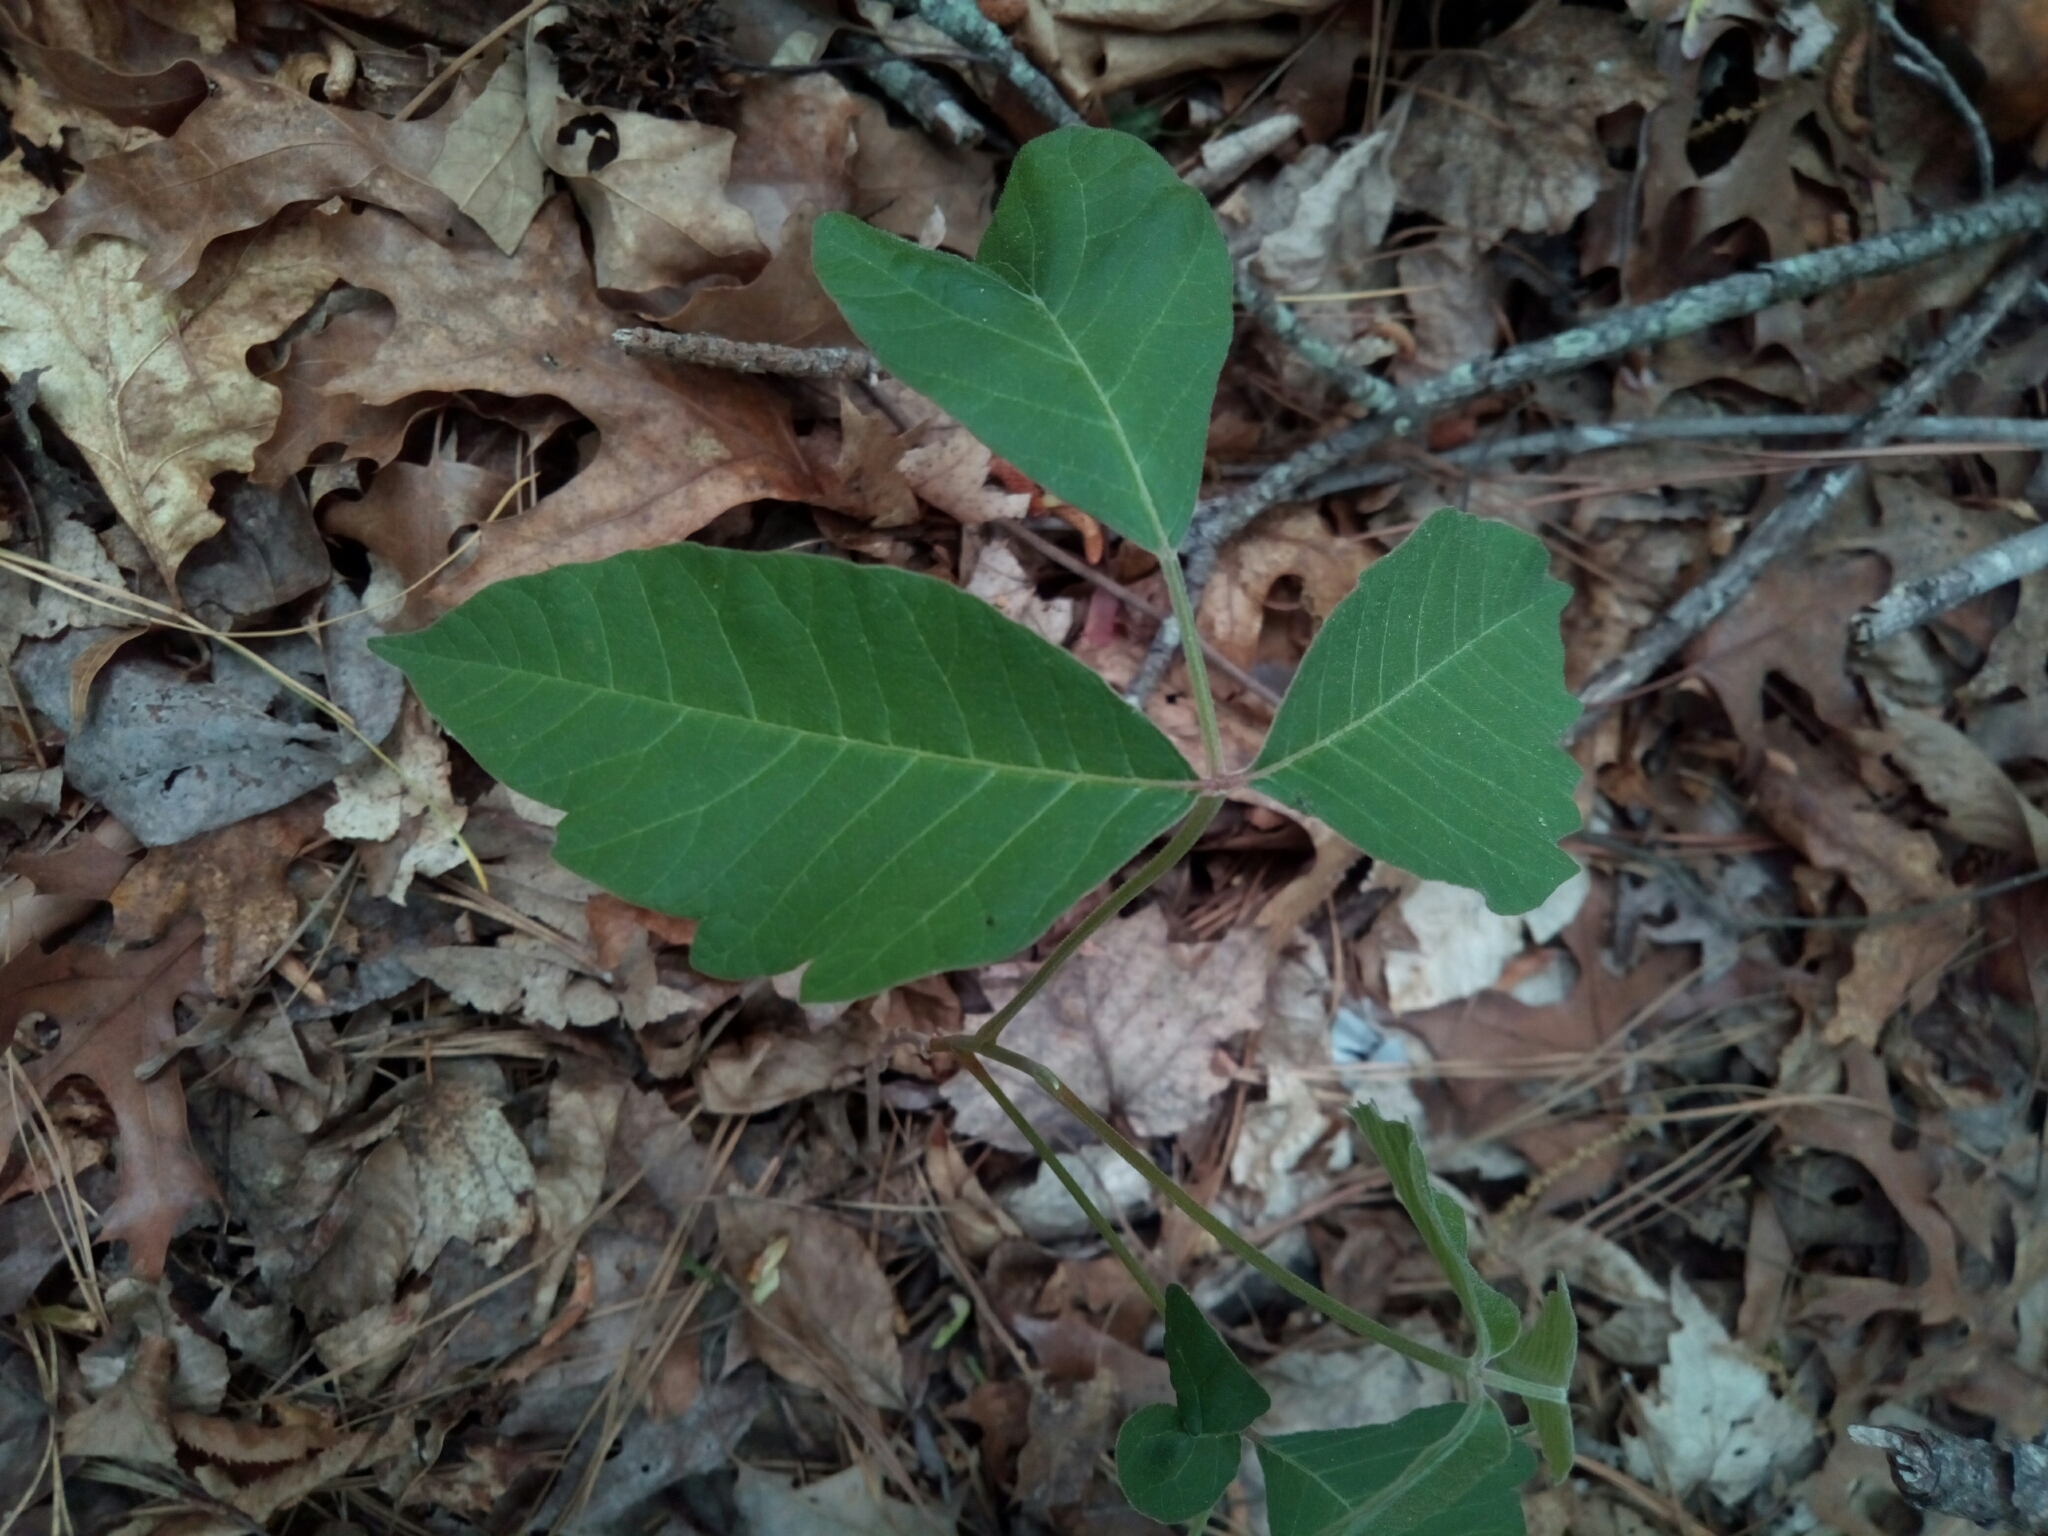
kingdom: Plantae
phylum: Tracheophyta
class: Magnoliopsida
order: Sapindales
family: Anacardiaceae
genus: Toxicodendron
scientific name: Toxicodendron radicans
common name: Poison ivy
